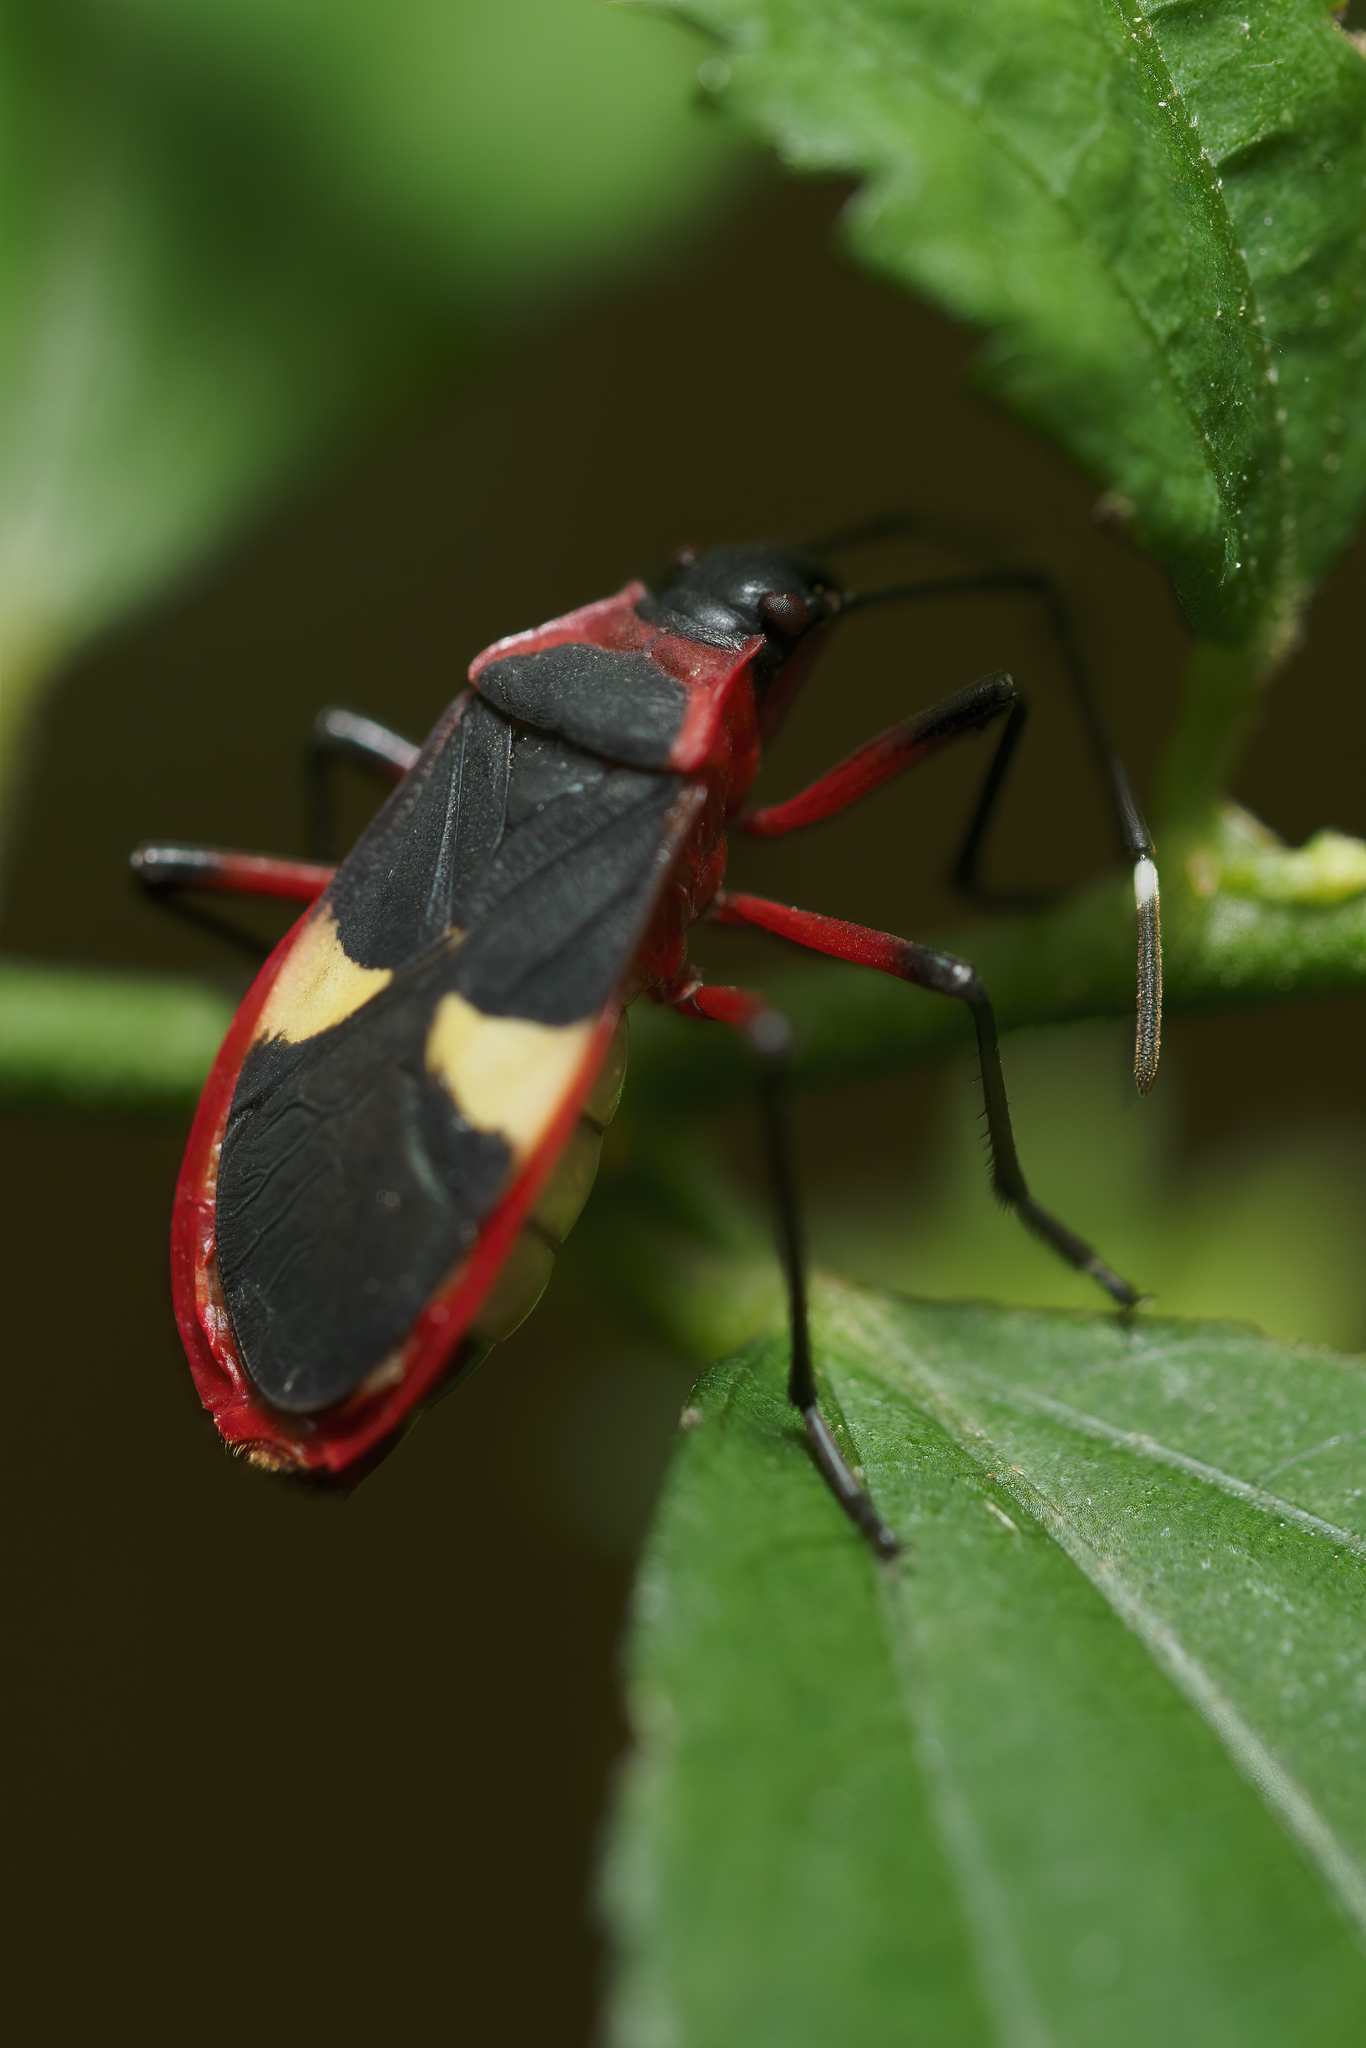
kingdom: Animalia
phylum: Arthropoda
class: Insecta
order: Hemiptera
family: Pyrrhocoridae
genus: Dysdercus
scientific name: Dysdercus albofasciatus
